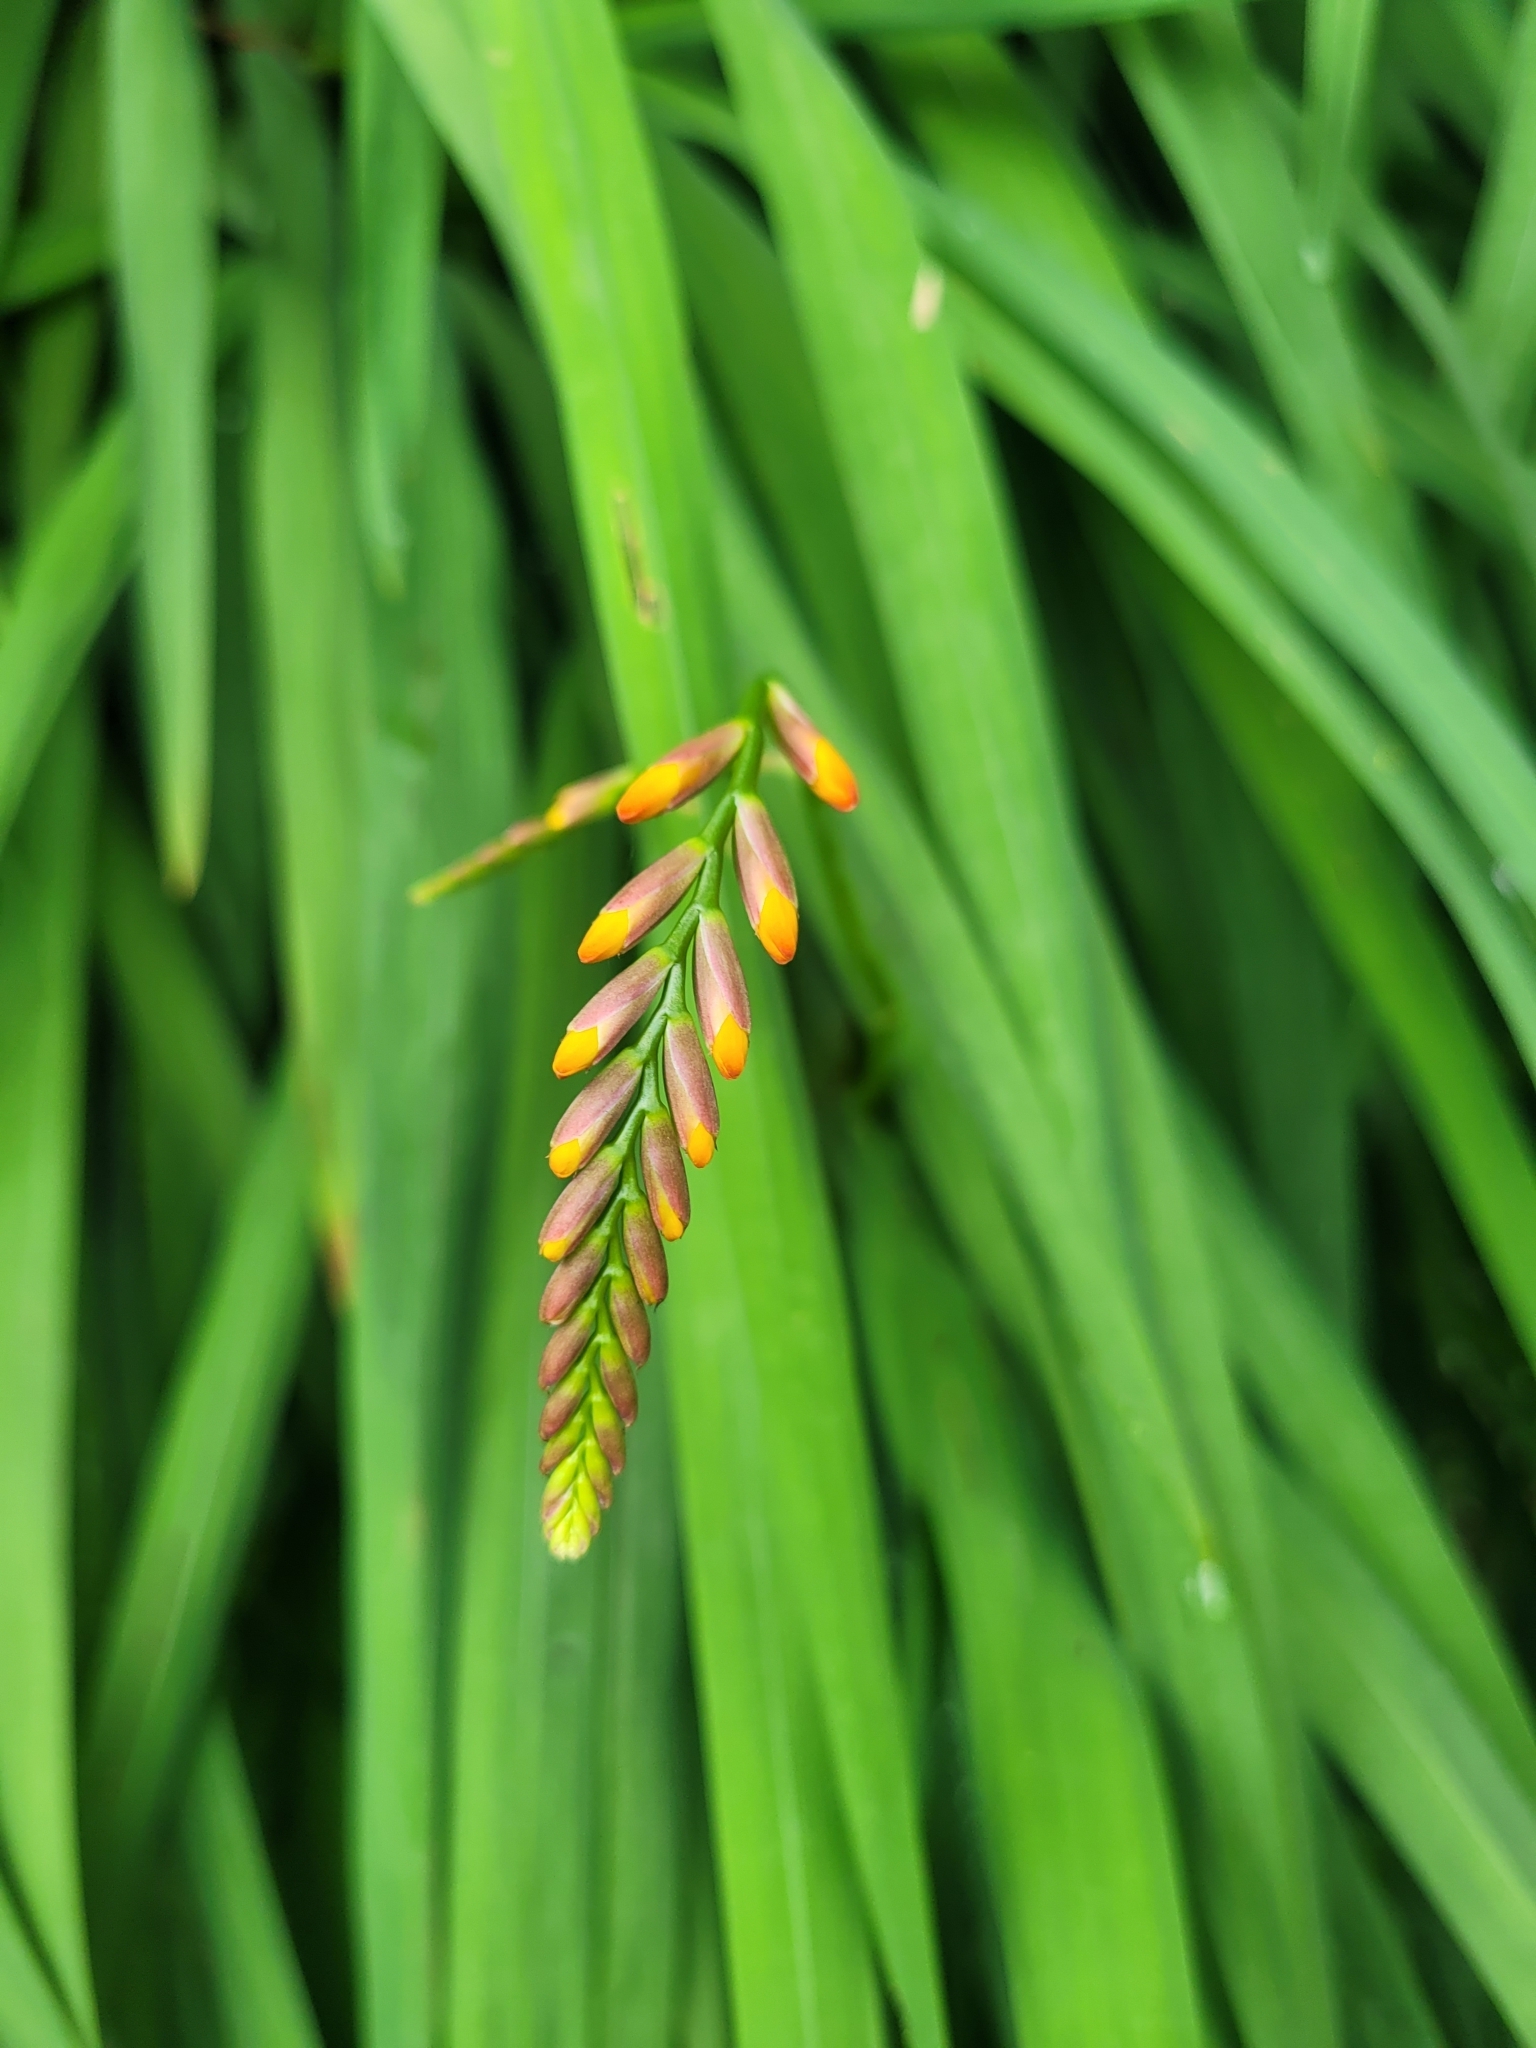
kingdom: Plantae
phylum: Tracheophyta
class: Liliopsida
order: Asparagales
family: Iridaceae
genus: Crocosmia
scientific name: Crocosmia crocosmiiflora
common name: Montbretia
